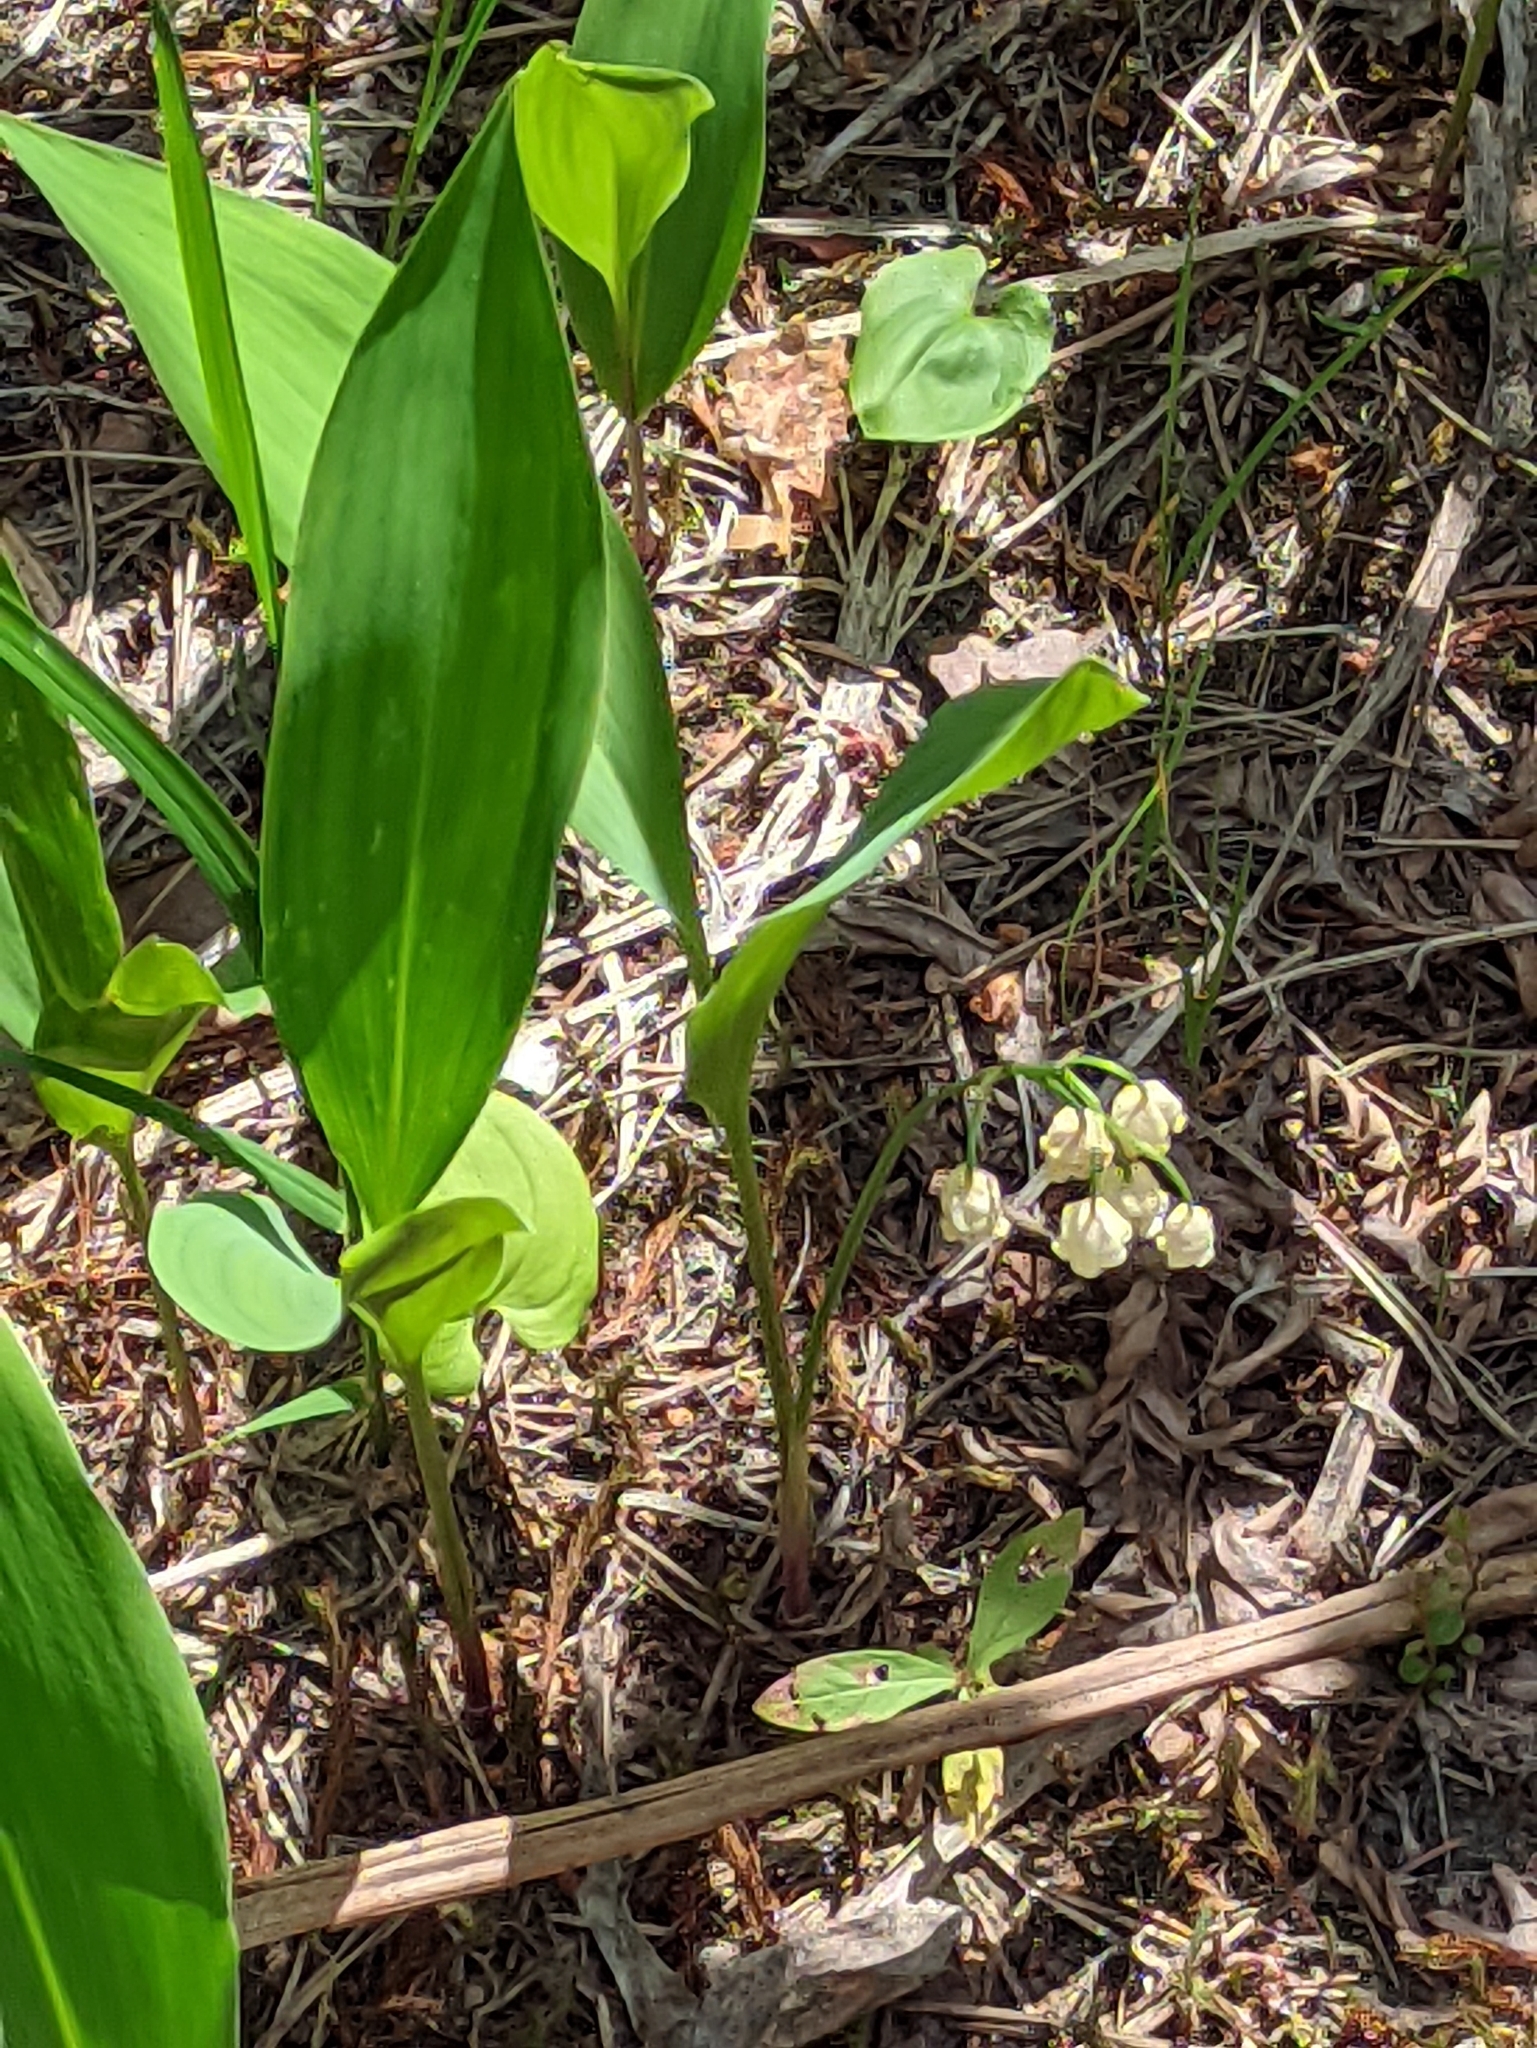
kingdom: Plantae
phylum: Tracheophyta
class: Liliopsida
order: Asparagales
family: Asparagaceae
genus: Convallaria
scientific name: Convallaria majalis
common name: Lily-of-the-valley
